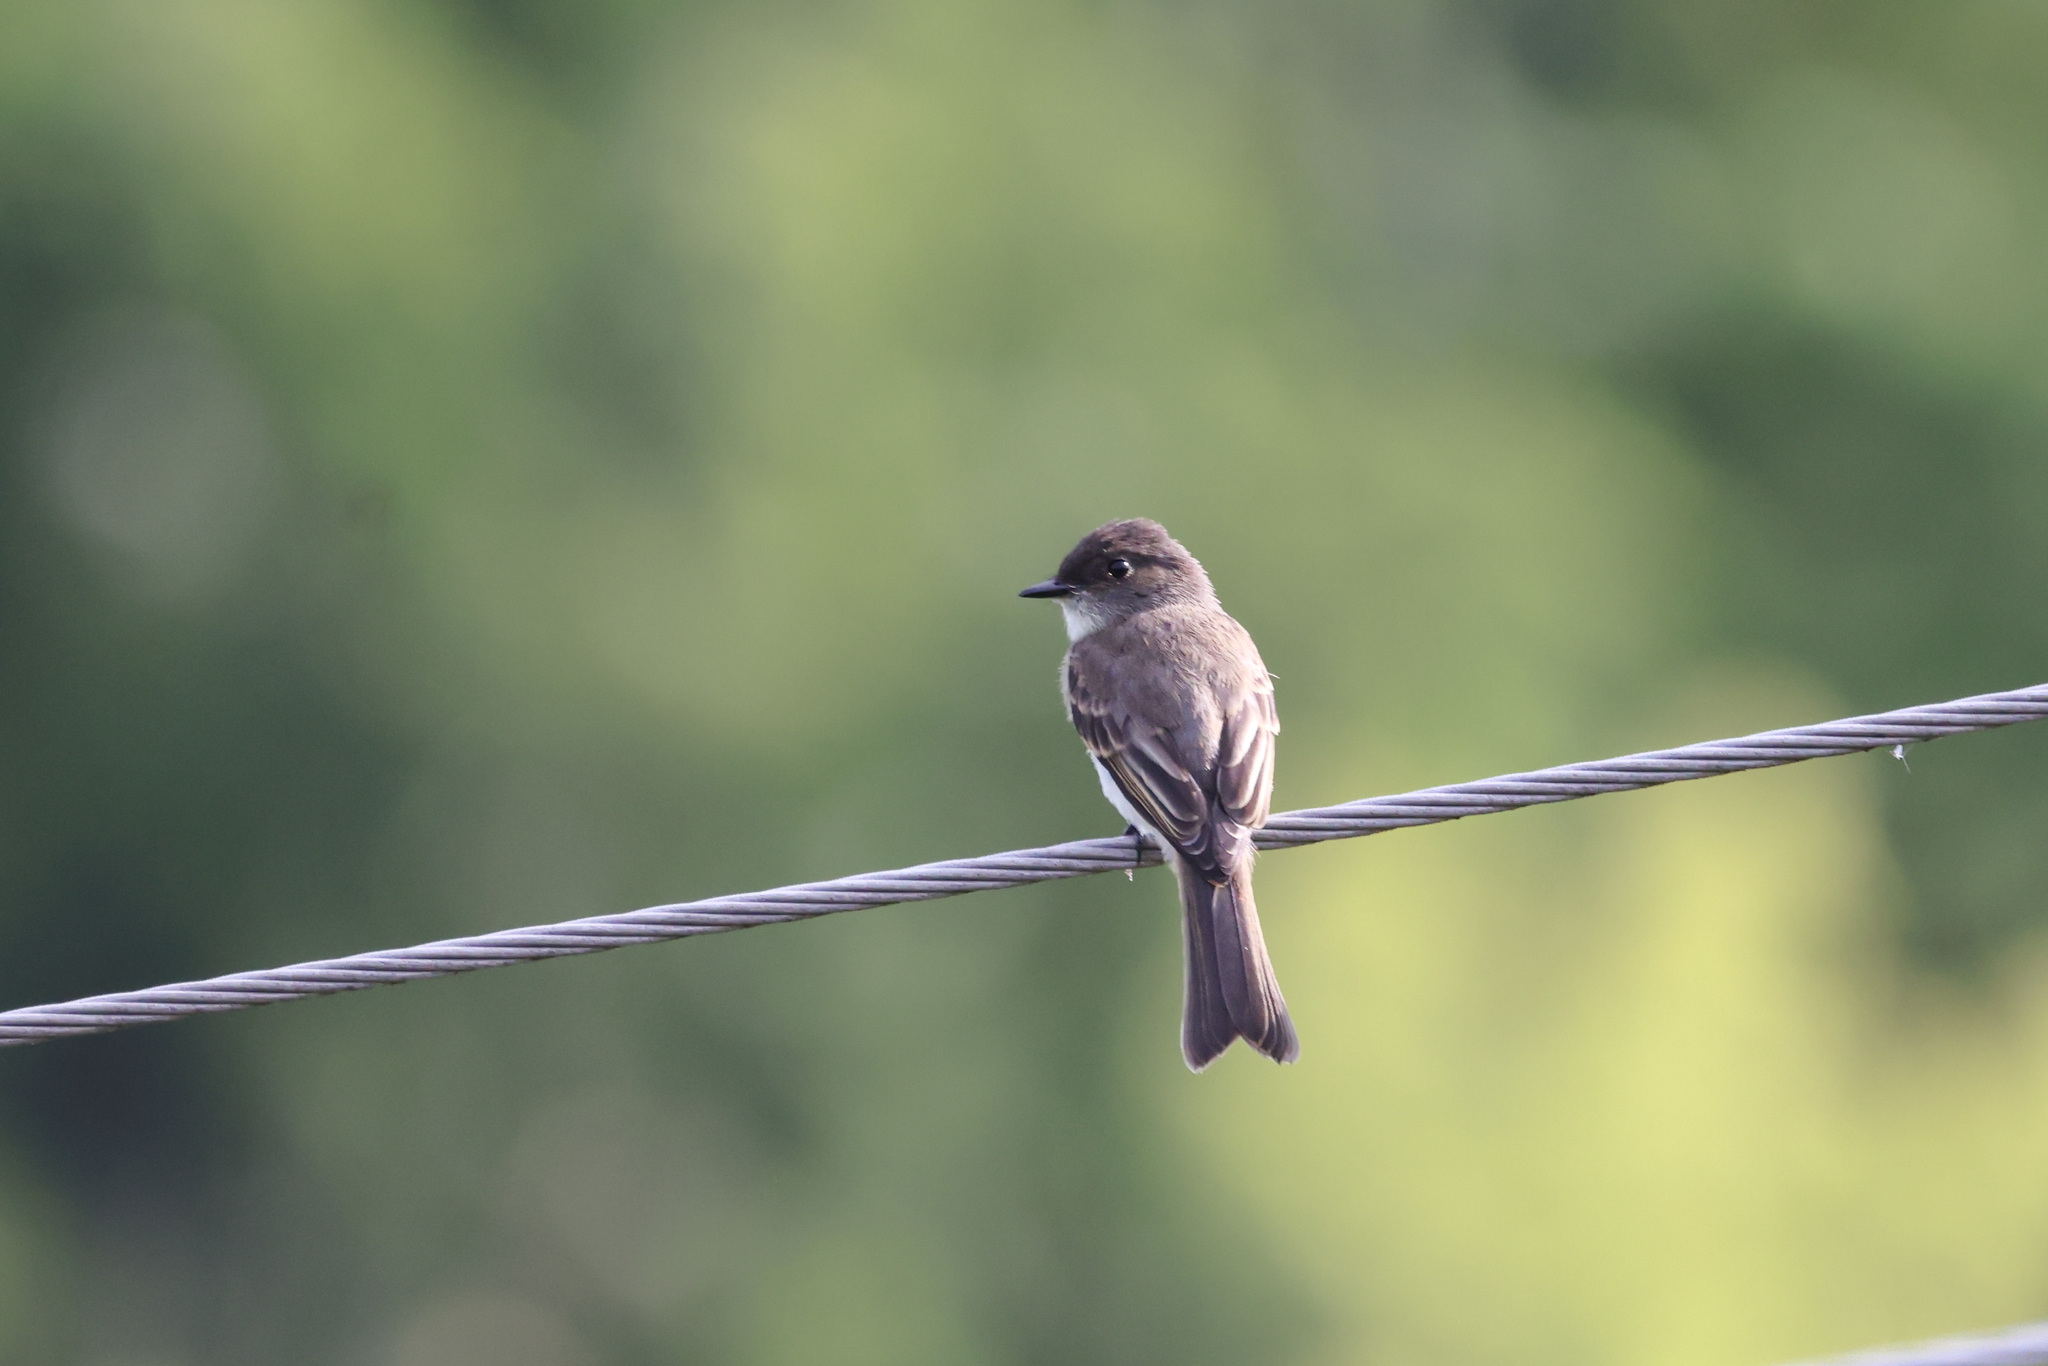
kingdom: Animalia
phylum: Chordata
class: Aves
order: Passeriformes
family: Tyrannidae
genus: Sayornis
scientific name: Sayornis phoebe
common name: Eastern phoebe
